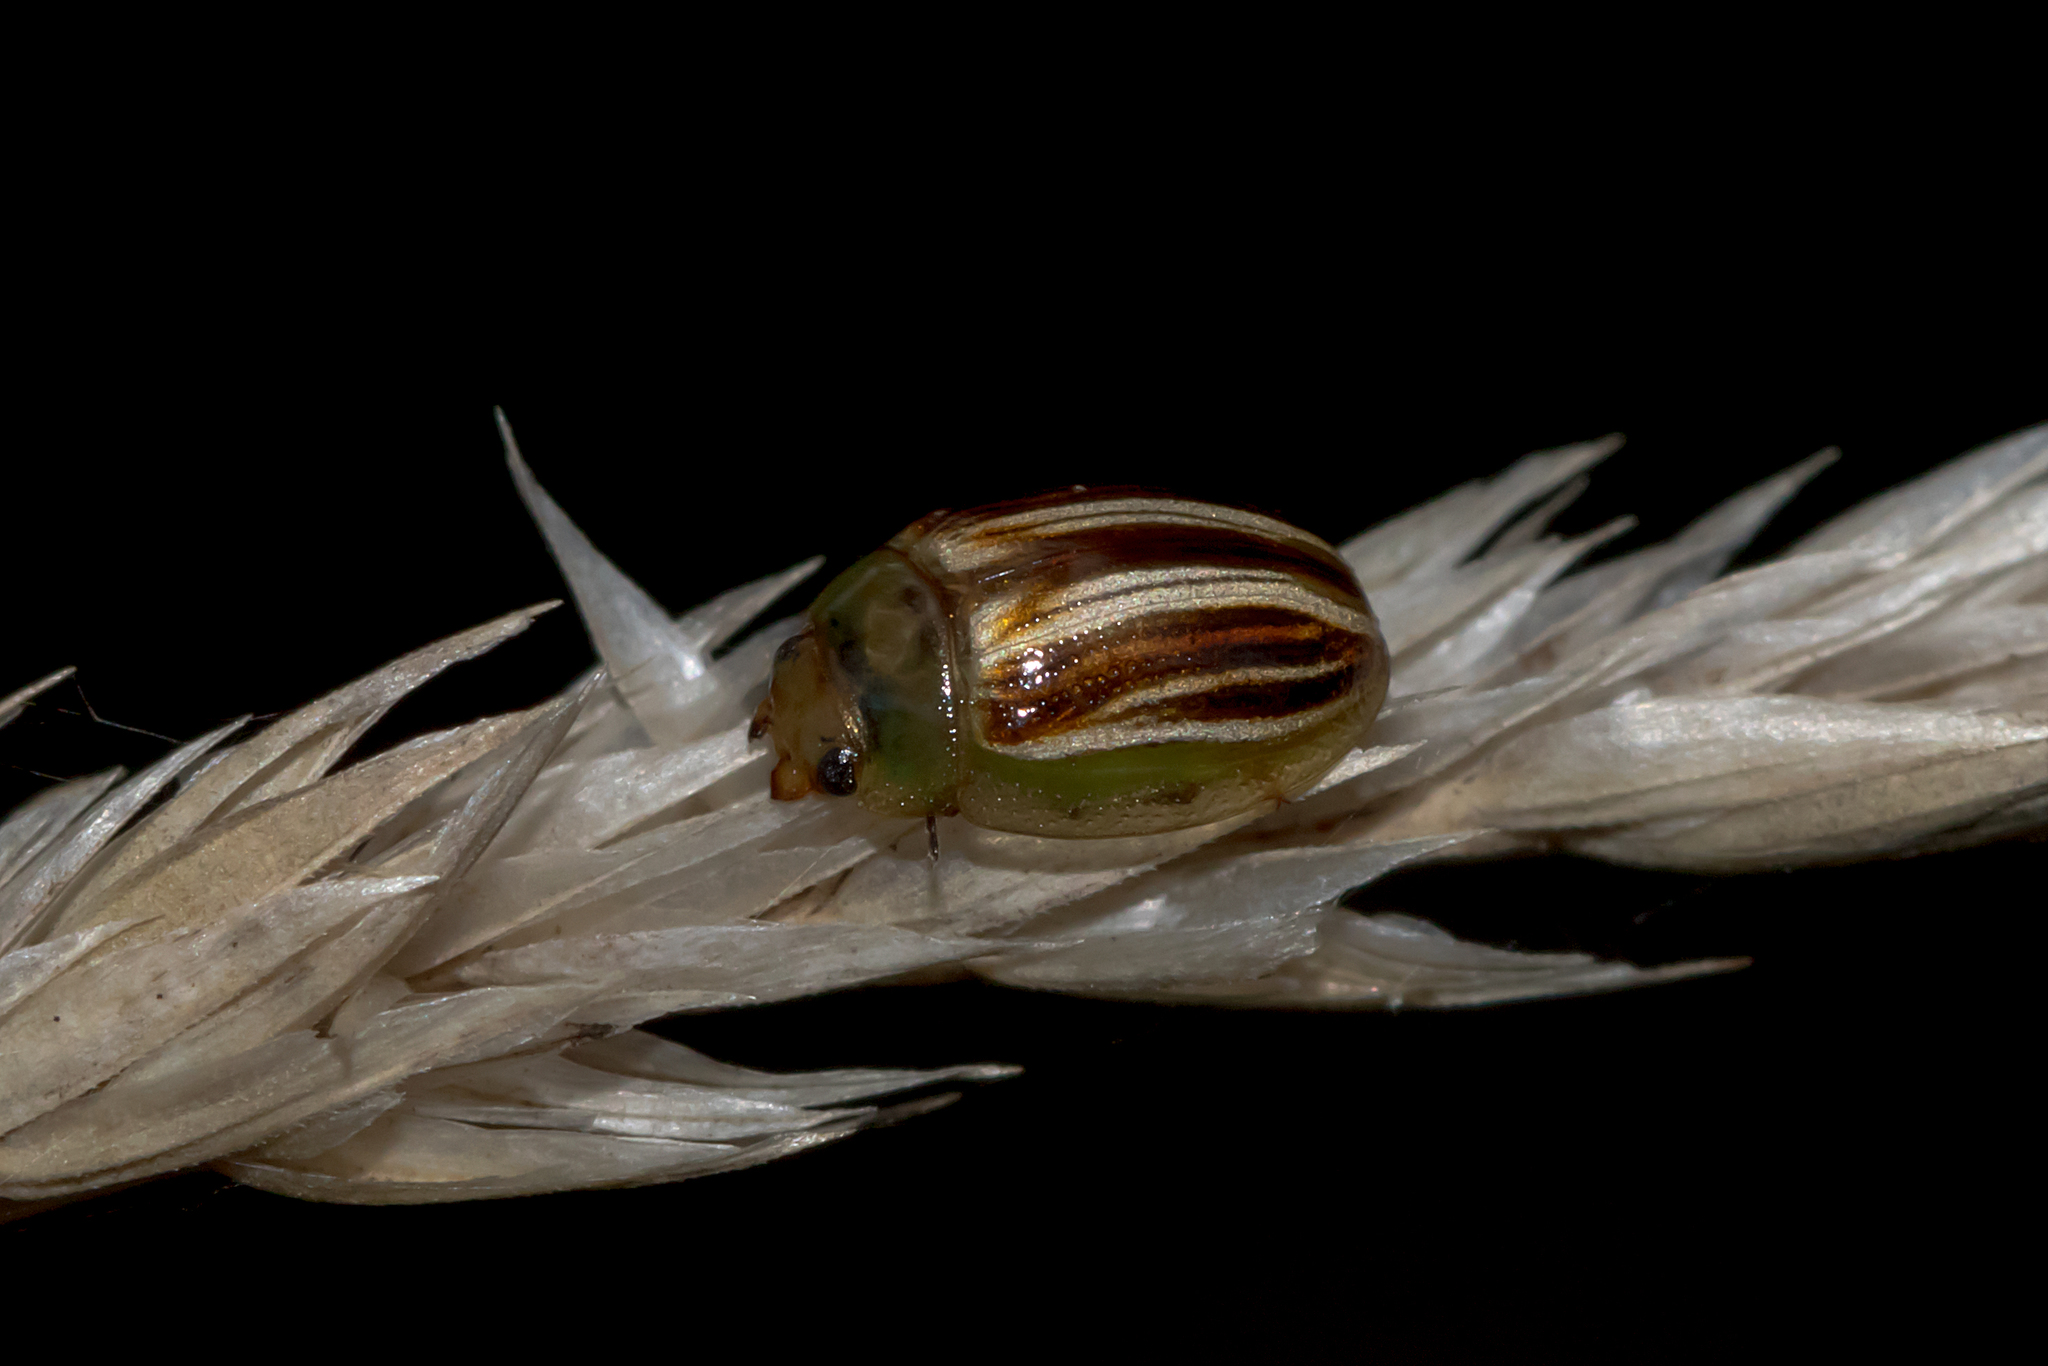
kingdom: Animalia
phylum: Arthropoda
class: Insecta
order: Coleoptera
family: Chrysomelidae
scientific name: Chrysomelidae
